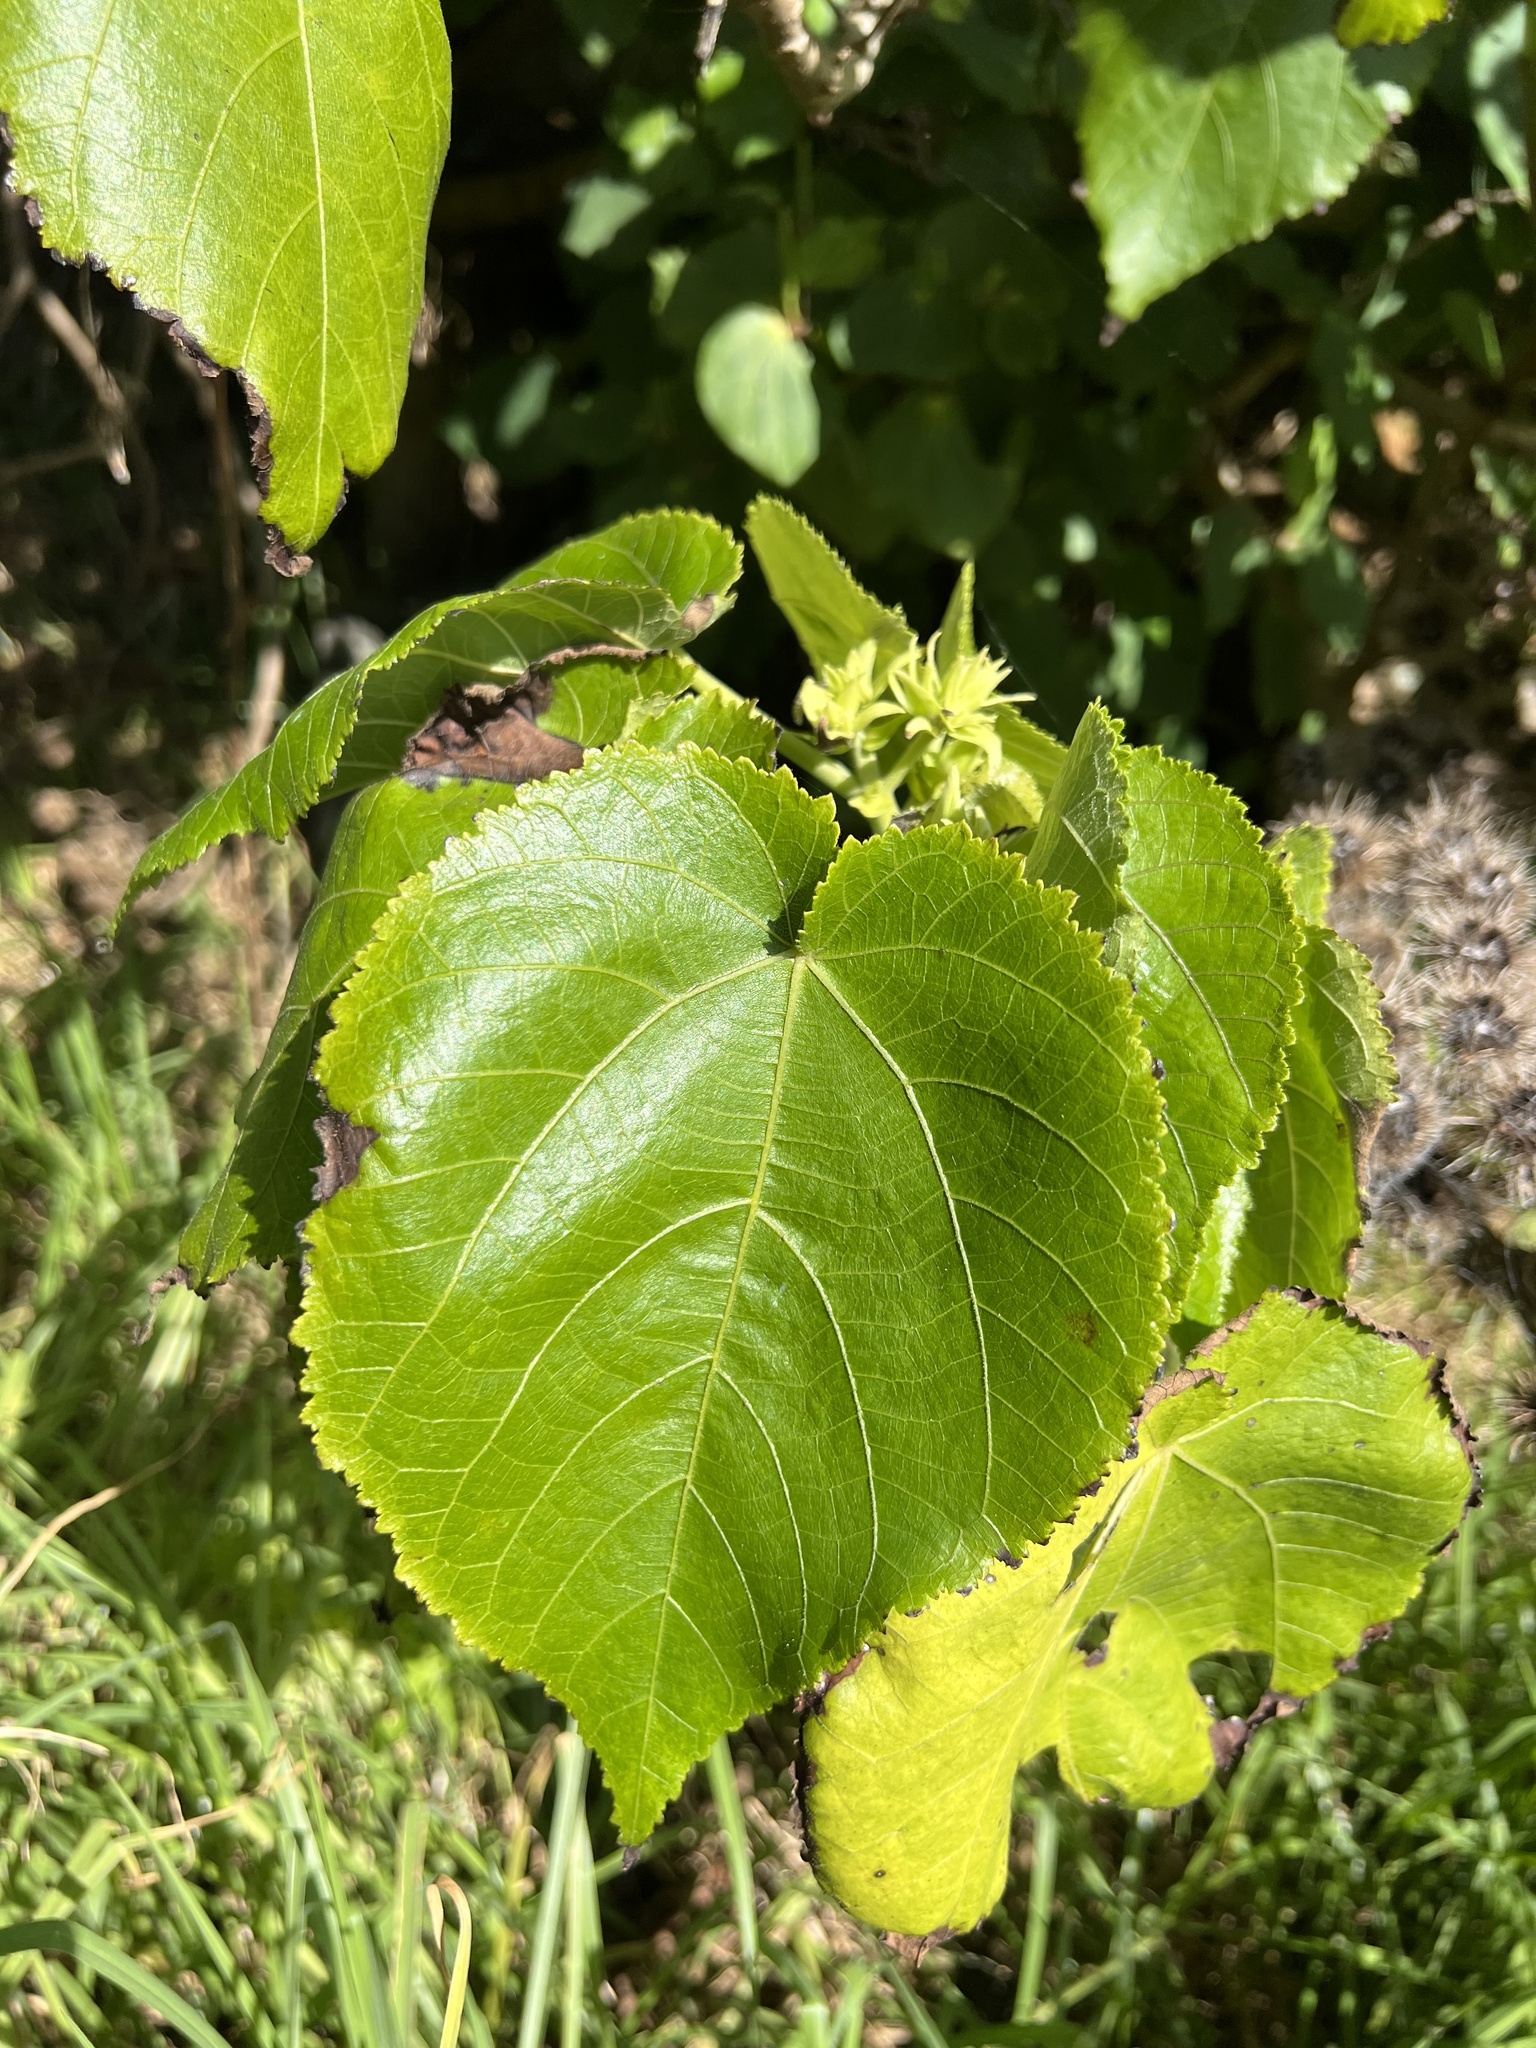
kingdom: Plantae
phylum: Tracheophyta
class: Magnoliopsida
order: Malvales
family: Malvaceae
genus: Entelea
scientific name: Entelea arborescens
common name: New zealand-mulberry
